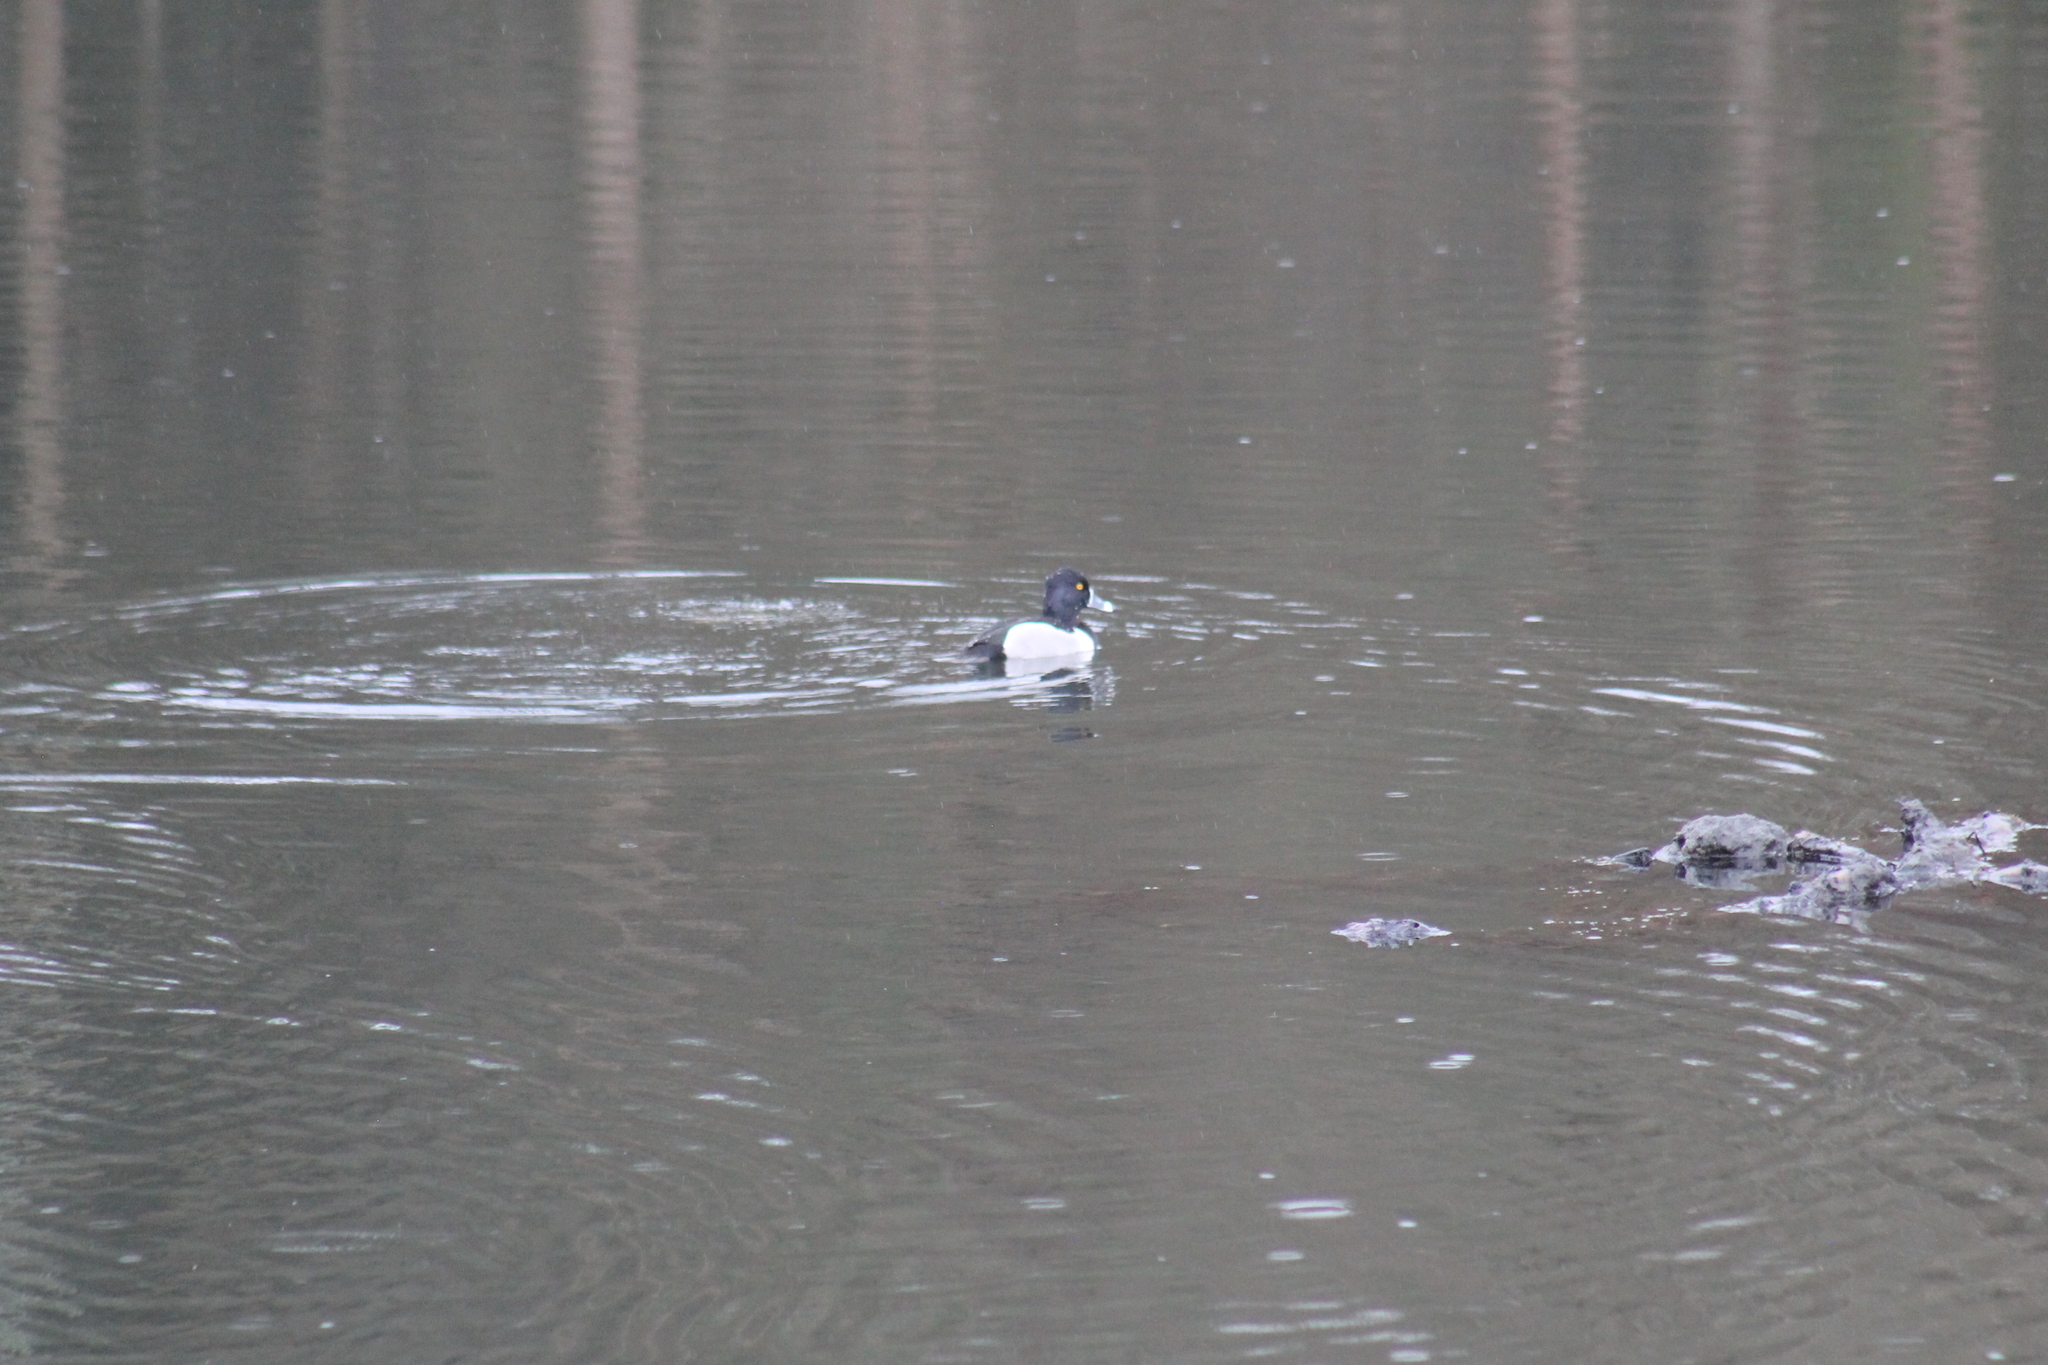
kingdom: Animalia
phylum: Chordata
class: Aves
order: Anseriformes
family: Anatidae
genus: Aythya
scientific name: Aythya collaris
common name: Ring-necked duck
